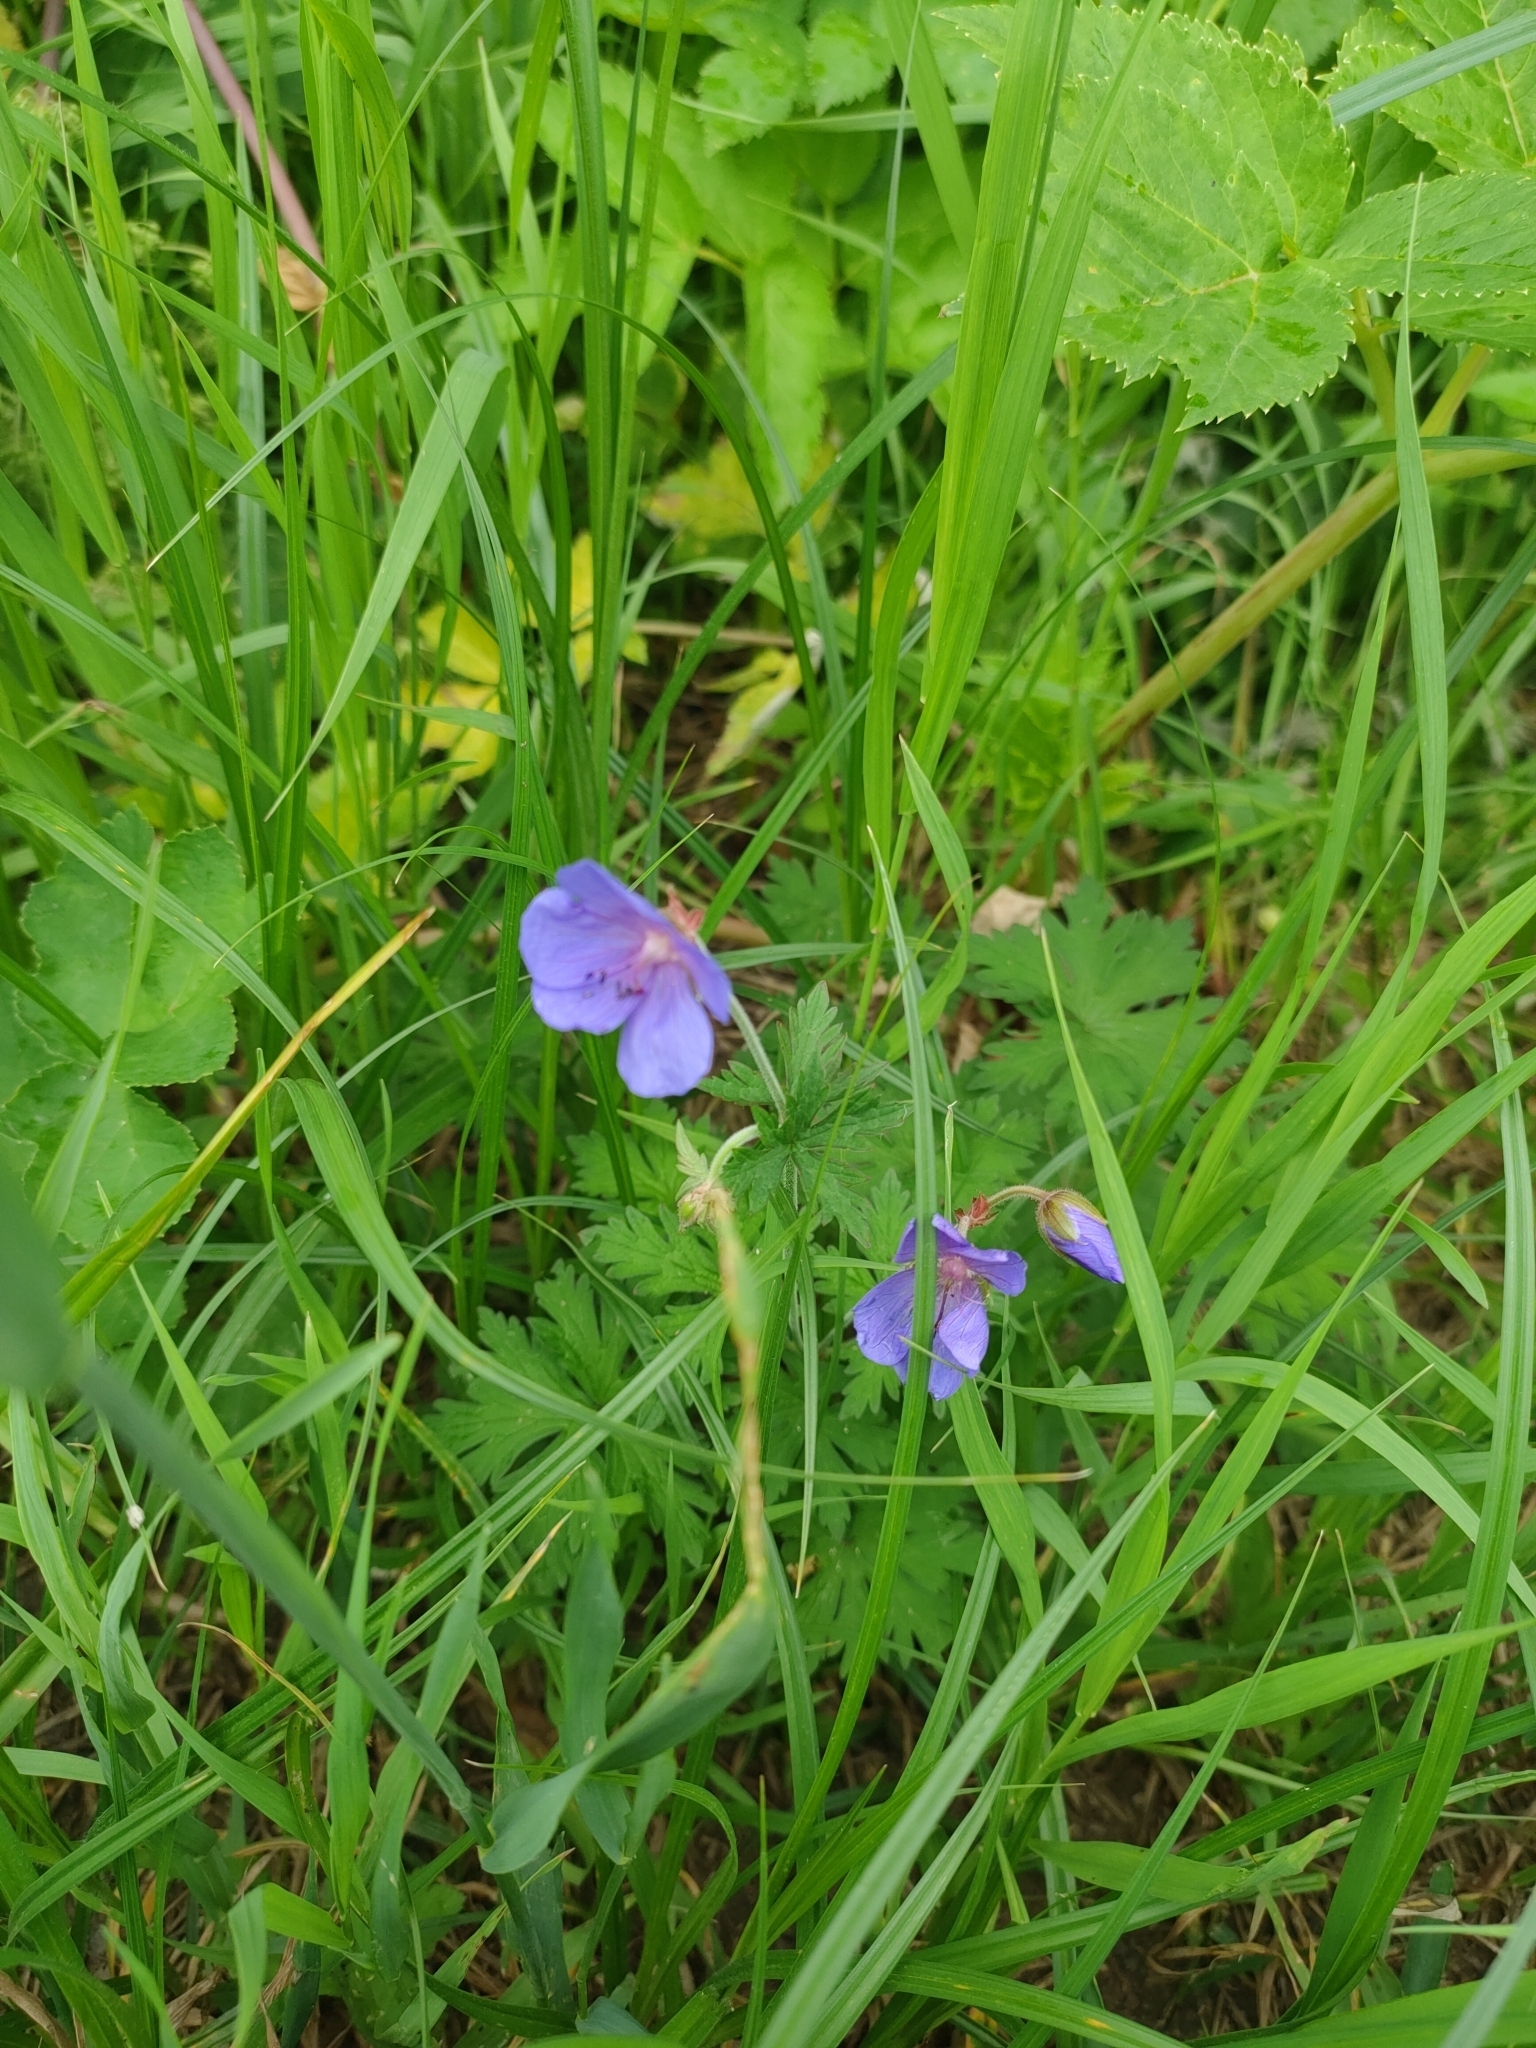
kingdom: Plantae
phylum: Tracheophyta
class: Magnoliopsida
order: Geraniales
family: Geraniaceae
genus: Geranium
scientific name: Geranium pratense
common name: Meadow crane's-bill
